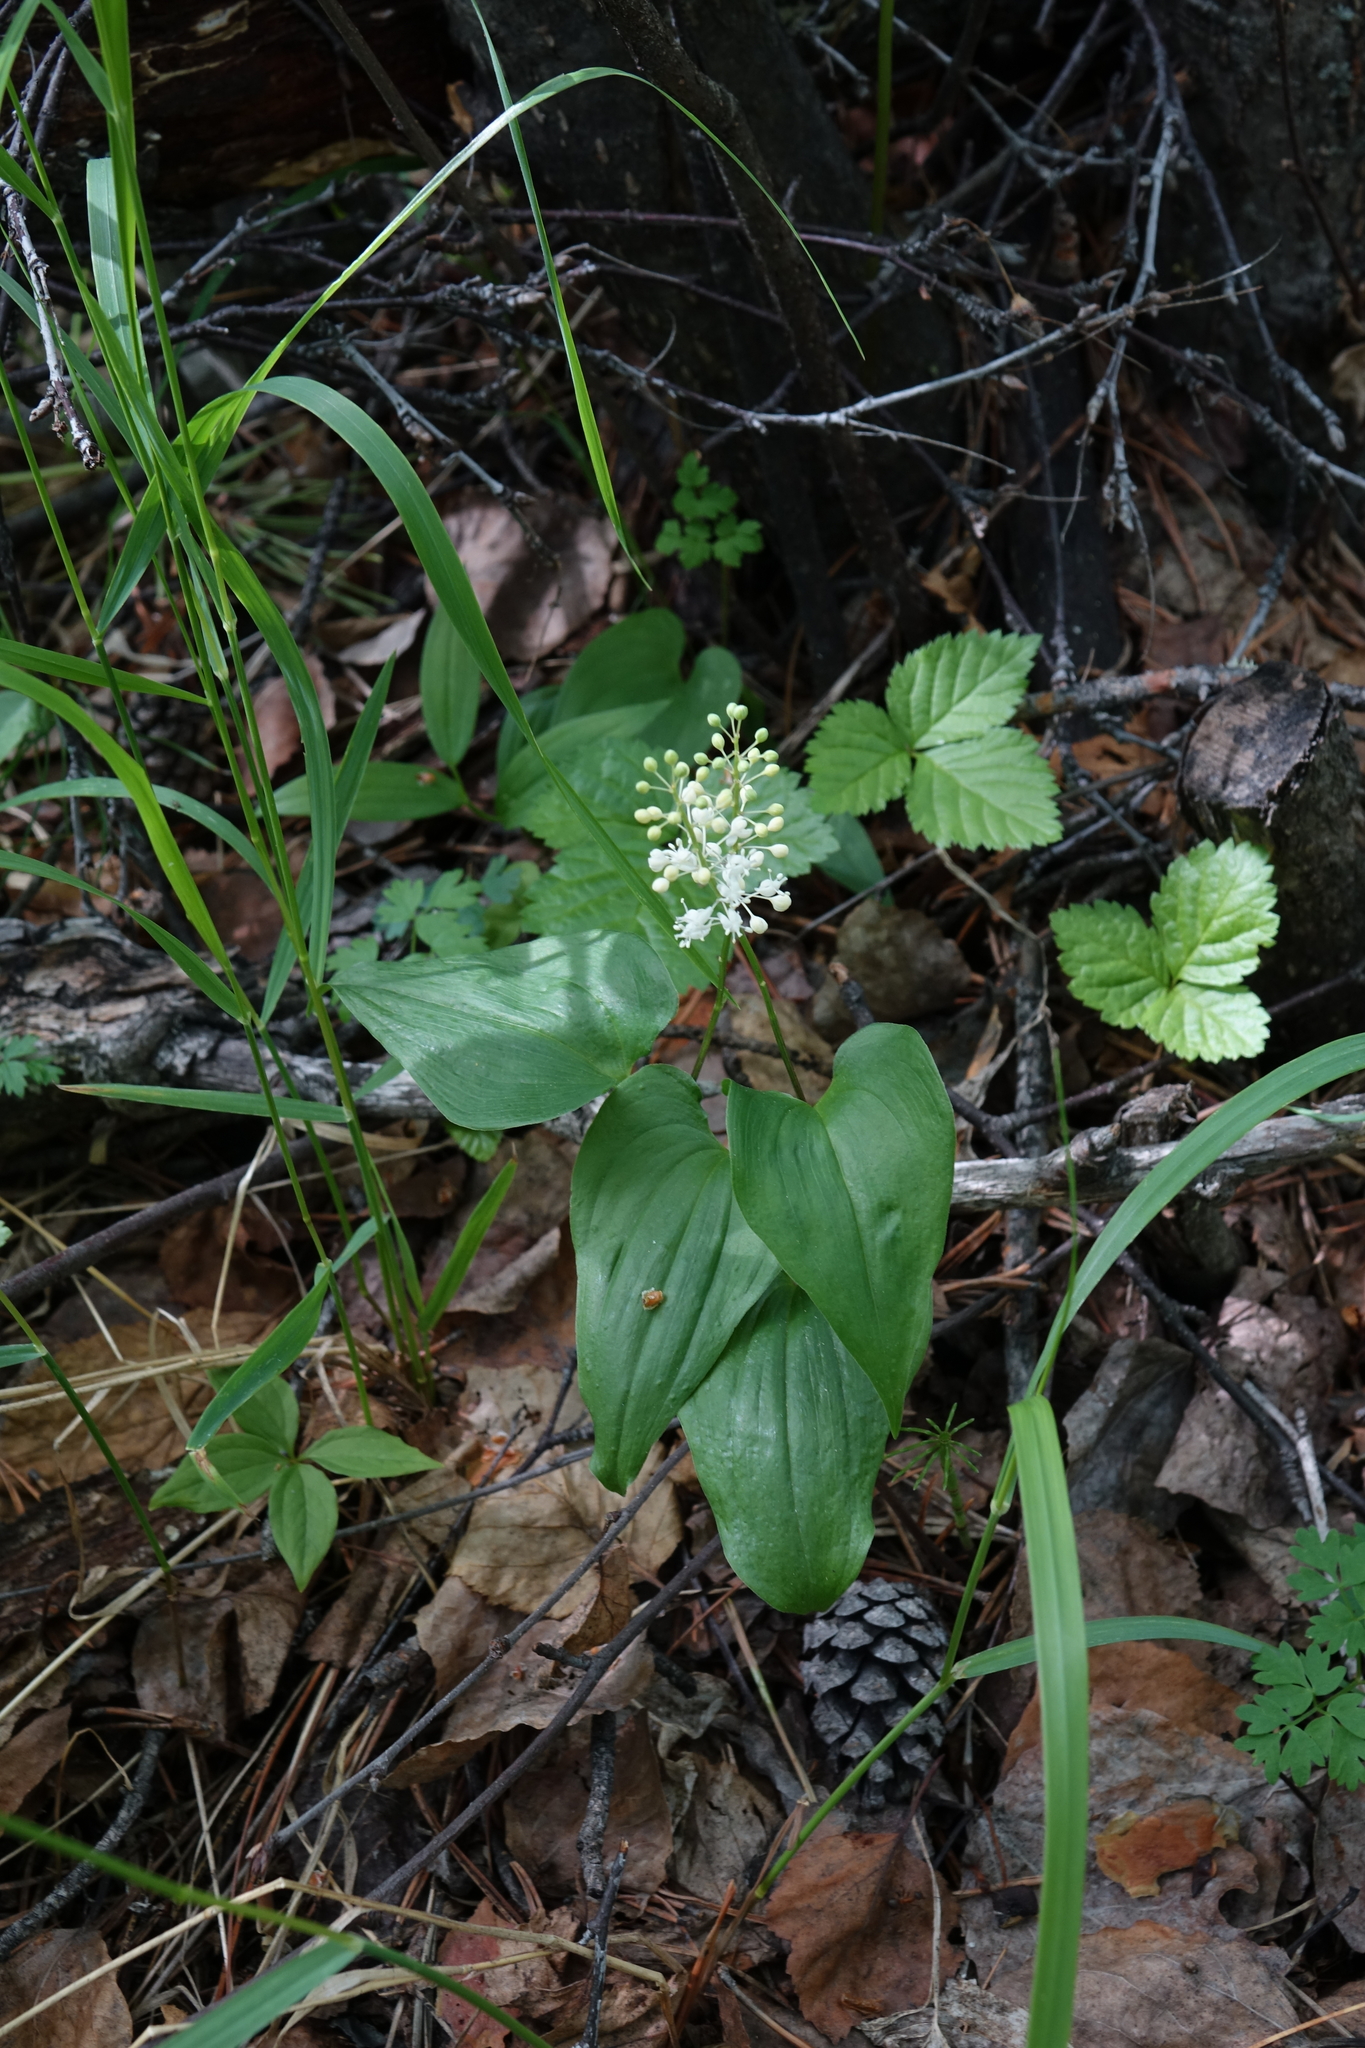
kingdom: Plantae
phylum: Tracheophyta
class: Liliopsida
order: Asparagales
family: Asparagaceae
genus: Maianthemum
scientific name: Maianthemum bifolium
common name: May lily
